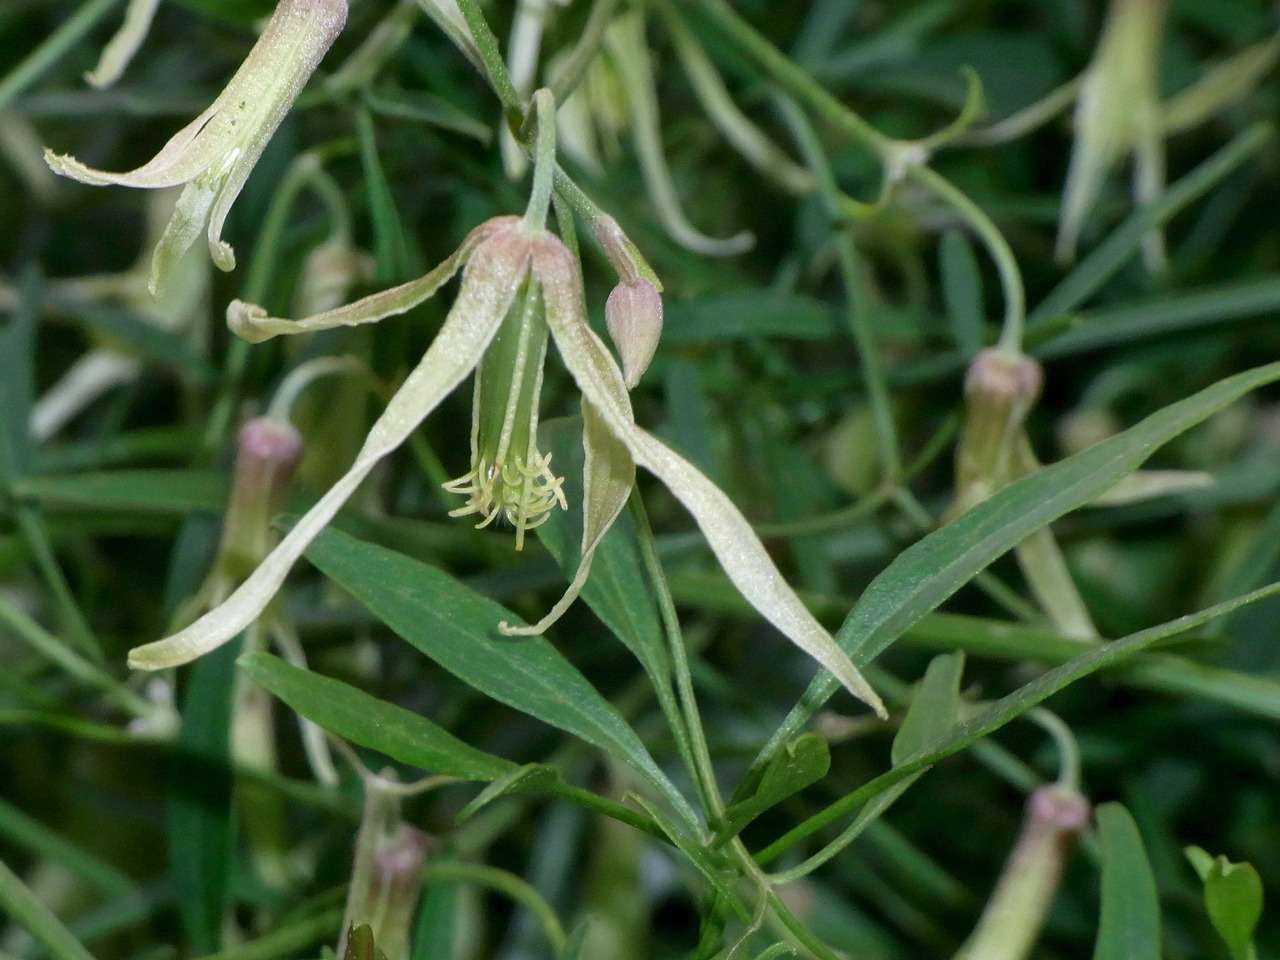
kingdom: Plantae
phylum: Tracheophyta
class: Magnoliopsida
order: Ranunculales
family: Ranunculaceae
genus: Clematis
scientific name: Clematis microphylla
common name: Headachevine
